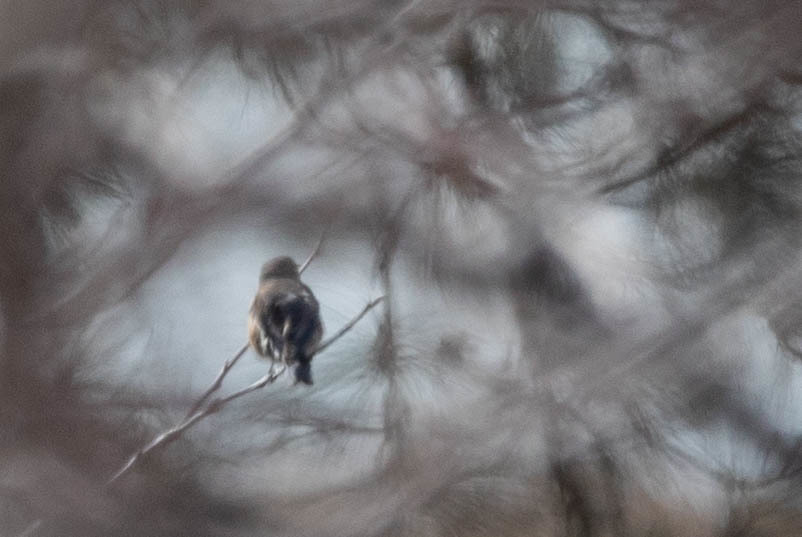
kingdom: Animalia
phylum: Chordata
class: Aves
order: Passeriformes
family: Turdidae
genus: Sialia
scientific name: Sialia mexicana
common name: Western bluebird
